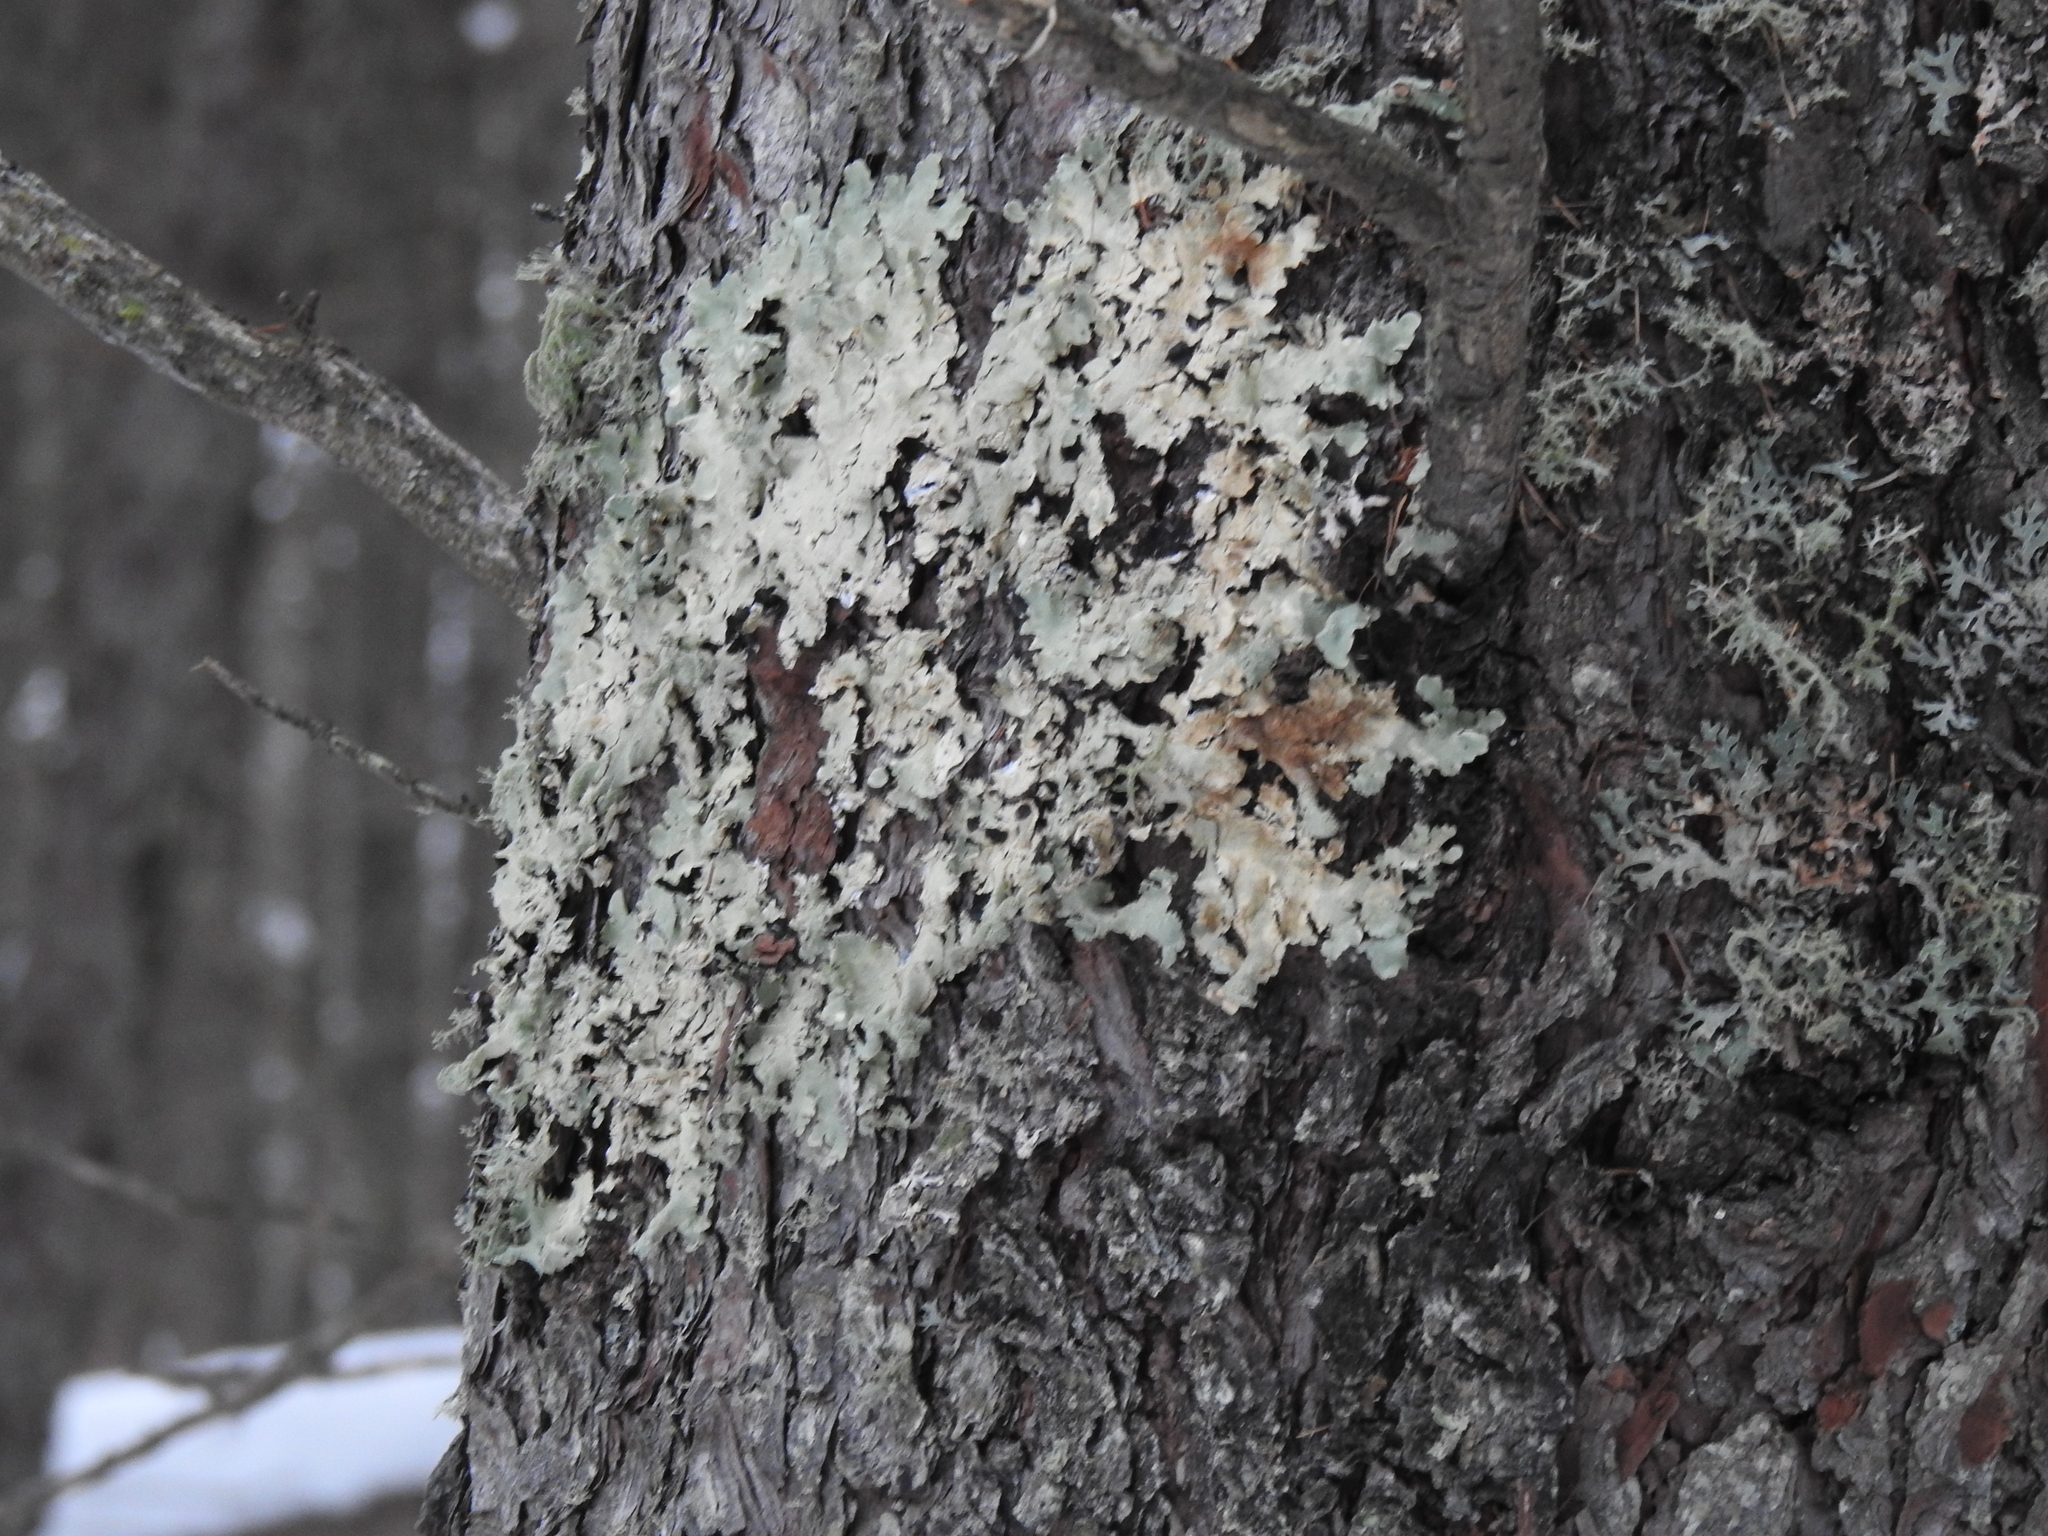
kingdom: Fungi
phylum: Ascomycota
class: Lecanoromycetes
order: Lecanorales
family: Parmeliaceae
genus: Flavoparmelia
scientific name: Flavoparmelia caperata
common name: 40-mile per hour lichen
